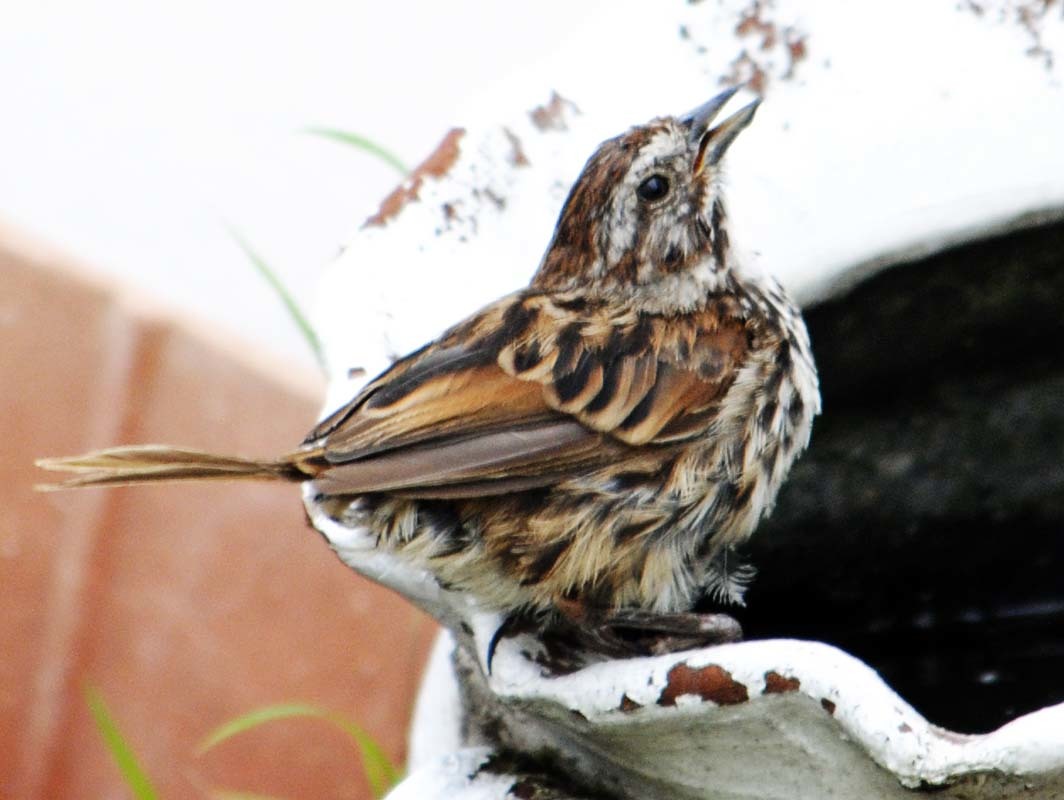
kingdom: Animalia
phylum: Chordata
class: Aves
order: Passeriformes
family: Passerellidae
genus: Melospiza
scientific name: Melospiza melodia
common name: Song sparrow
